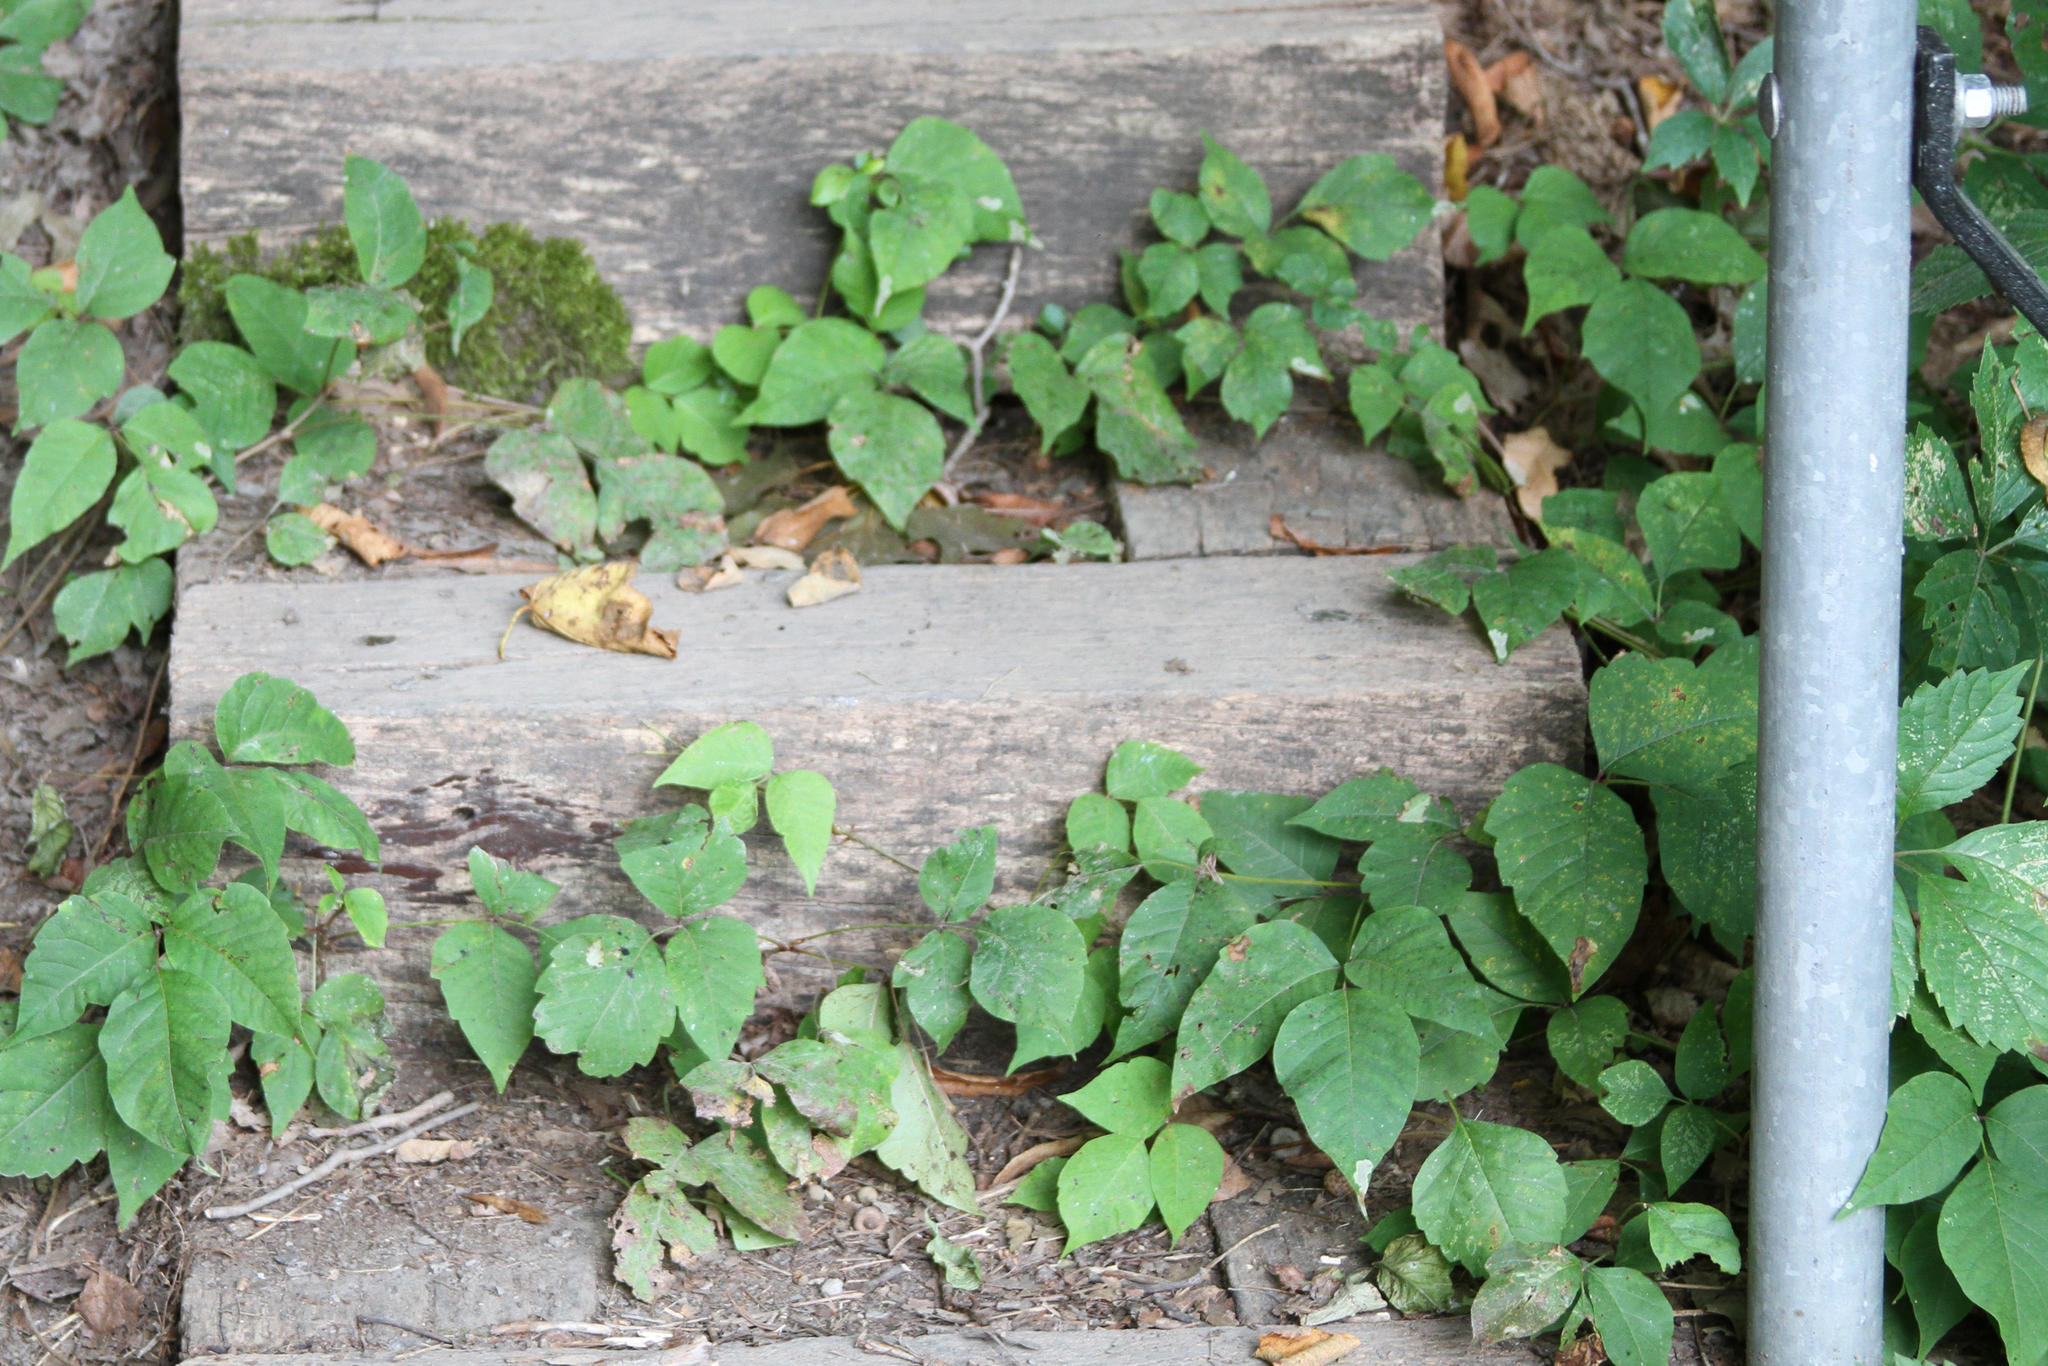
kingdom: Plantae
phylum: Tracheophyta
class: Magnoliopsida
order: Sapindales
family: Anacardiaceae
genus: Toxicodendron
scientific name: Toxicodendron radicans
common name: Poison ivy
